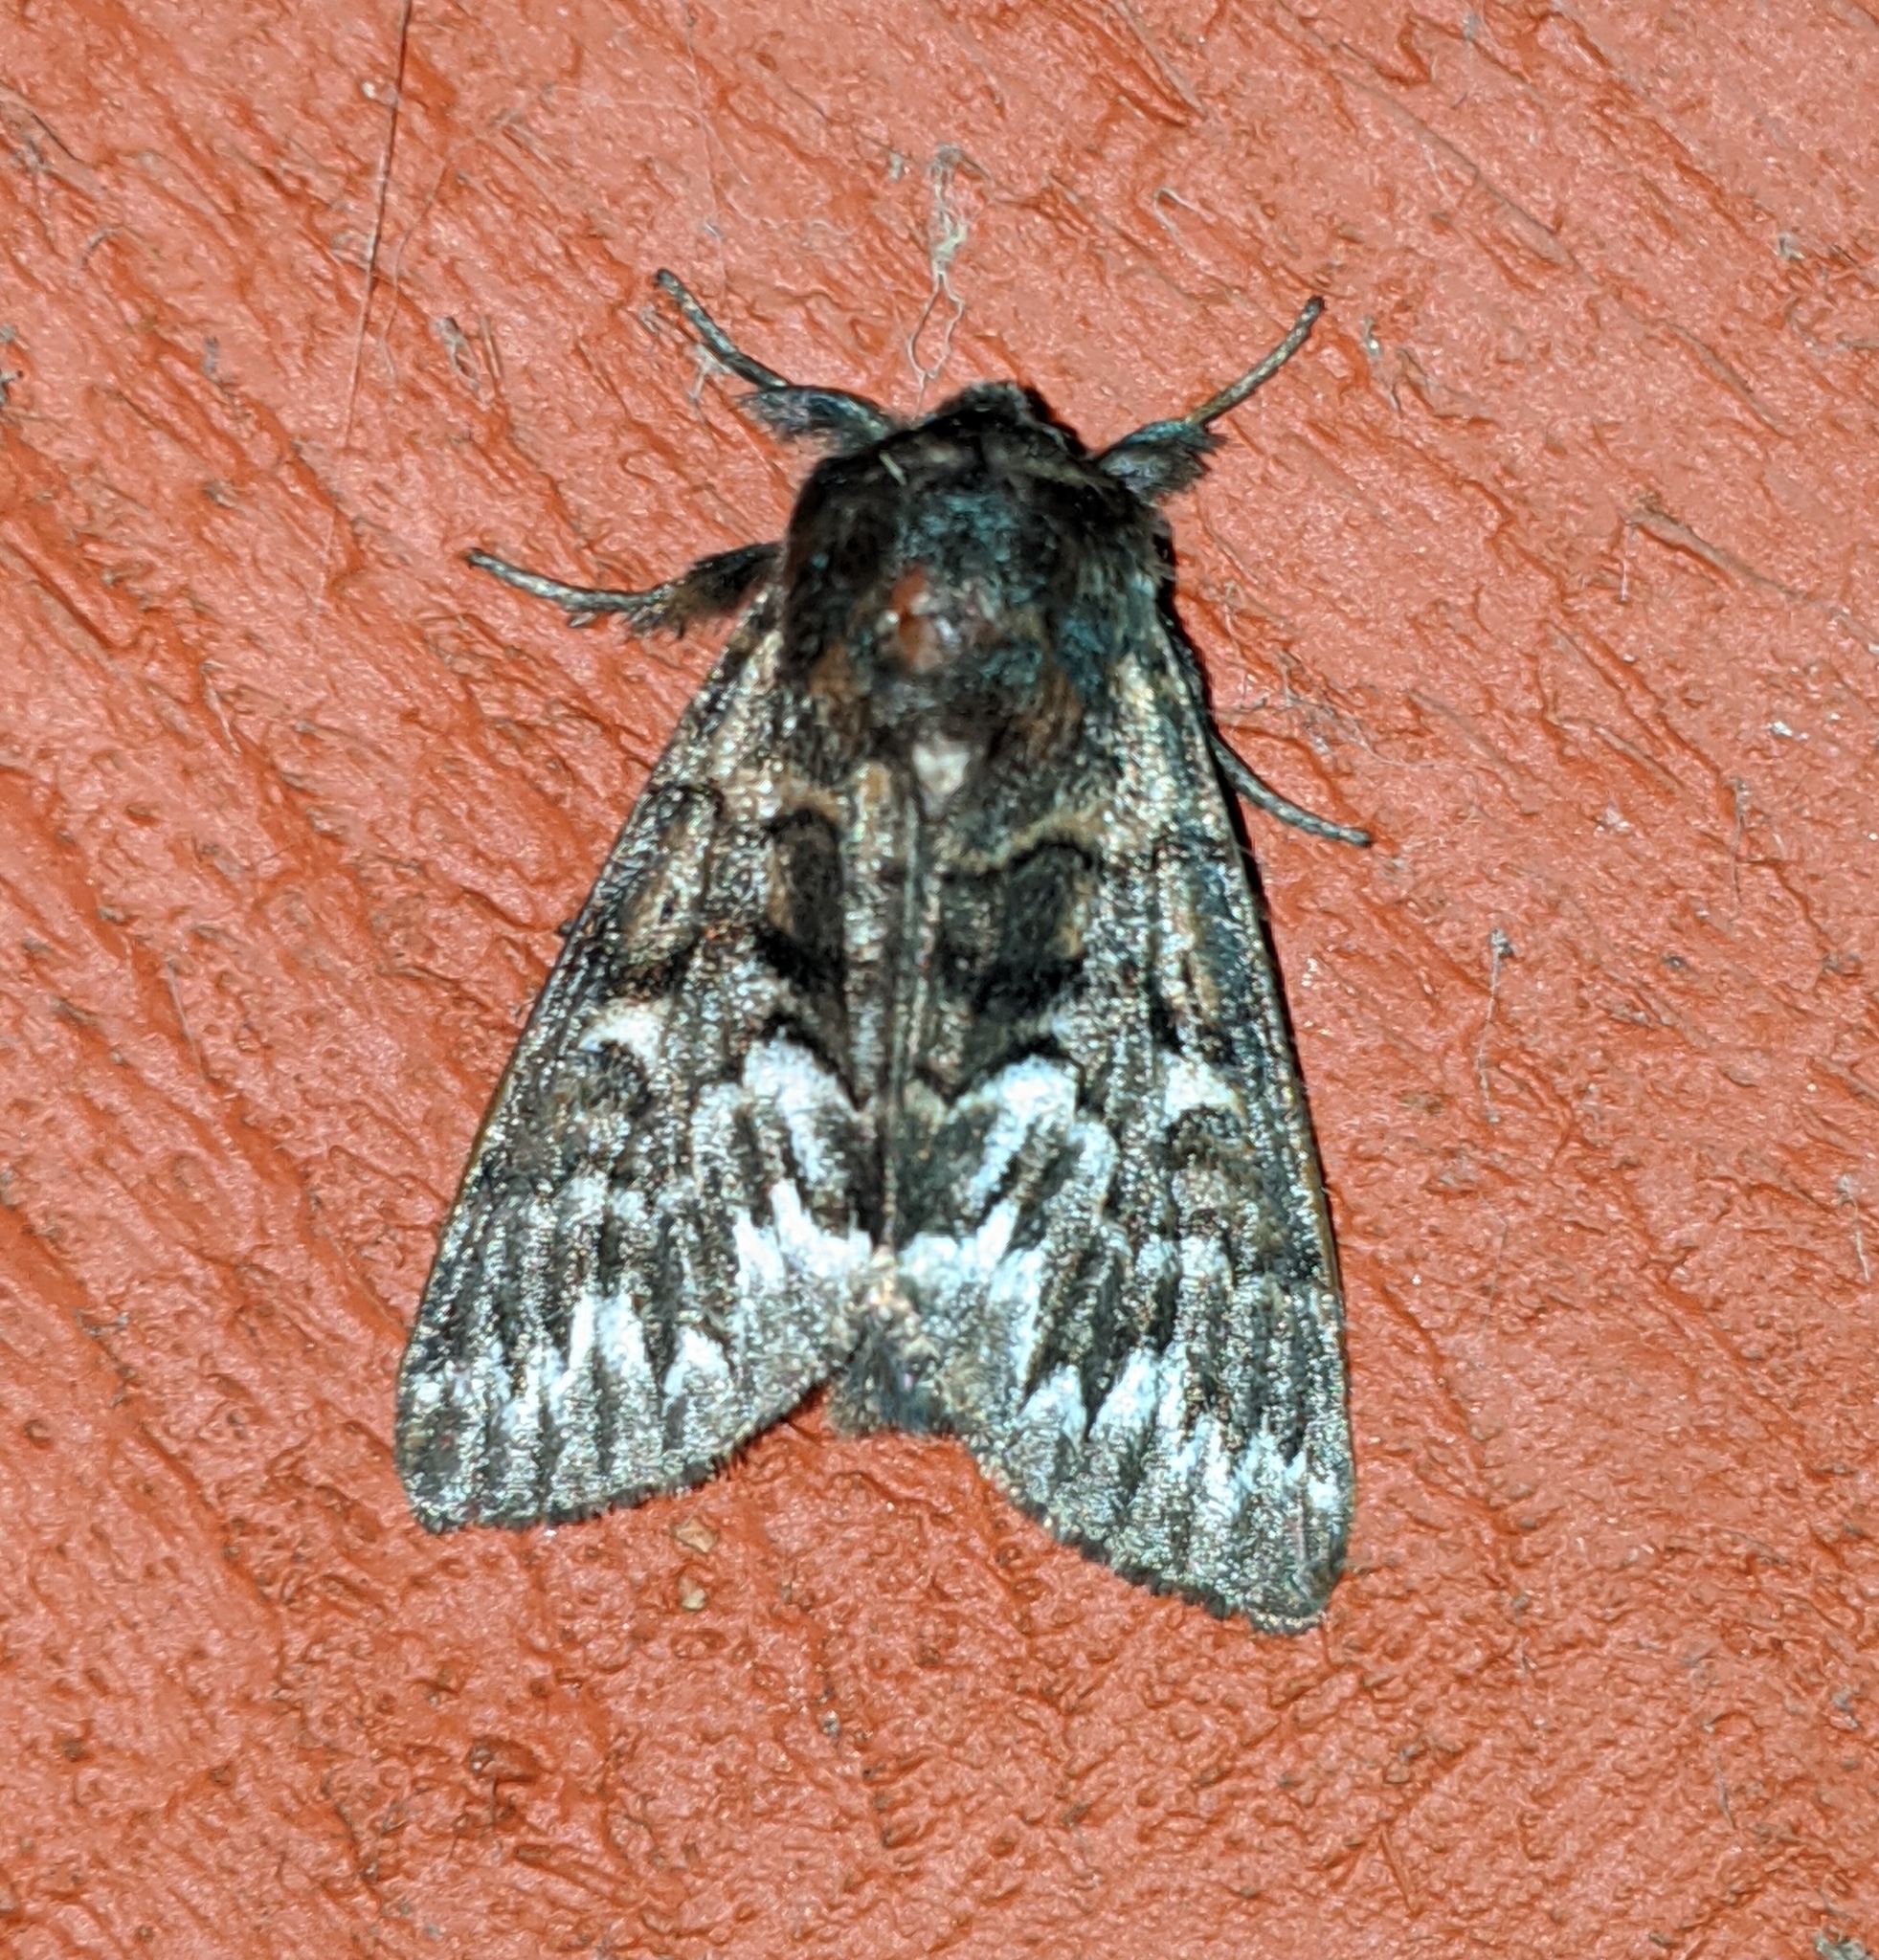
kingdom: Animalia
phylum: Arthropoda
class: Insecta
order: Lepidoptera
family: Noctuidae
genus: Panthea
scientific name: Panthea virginarius
